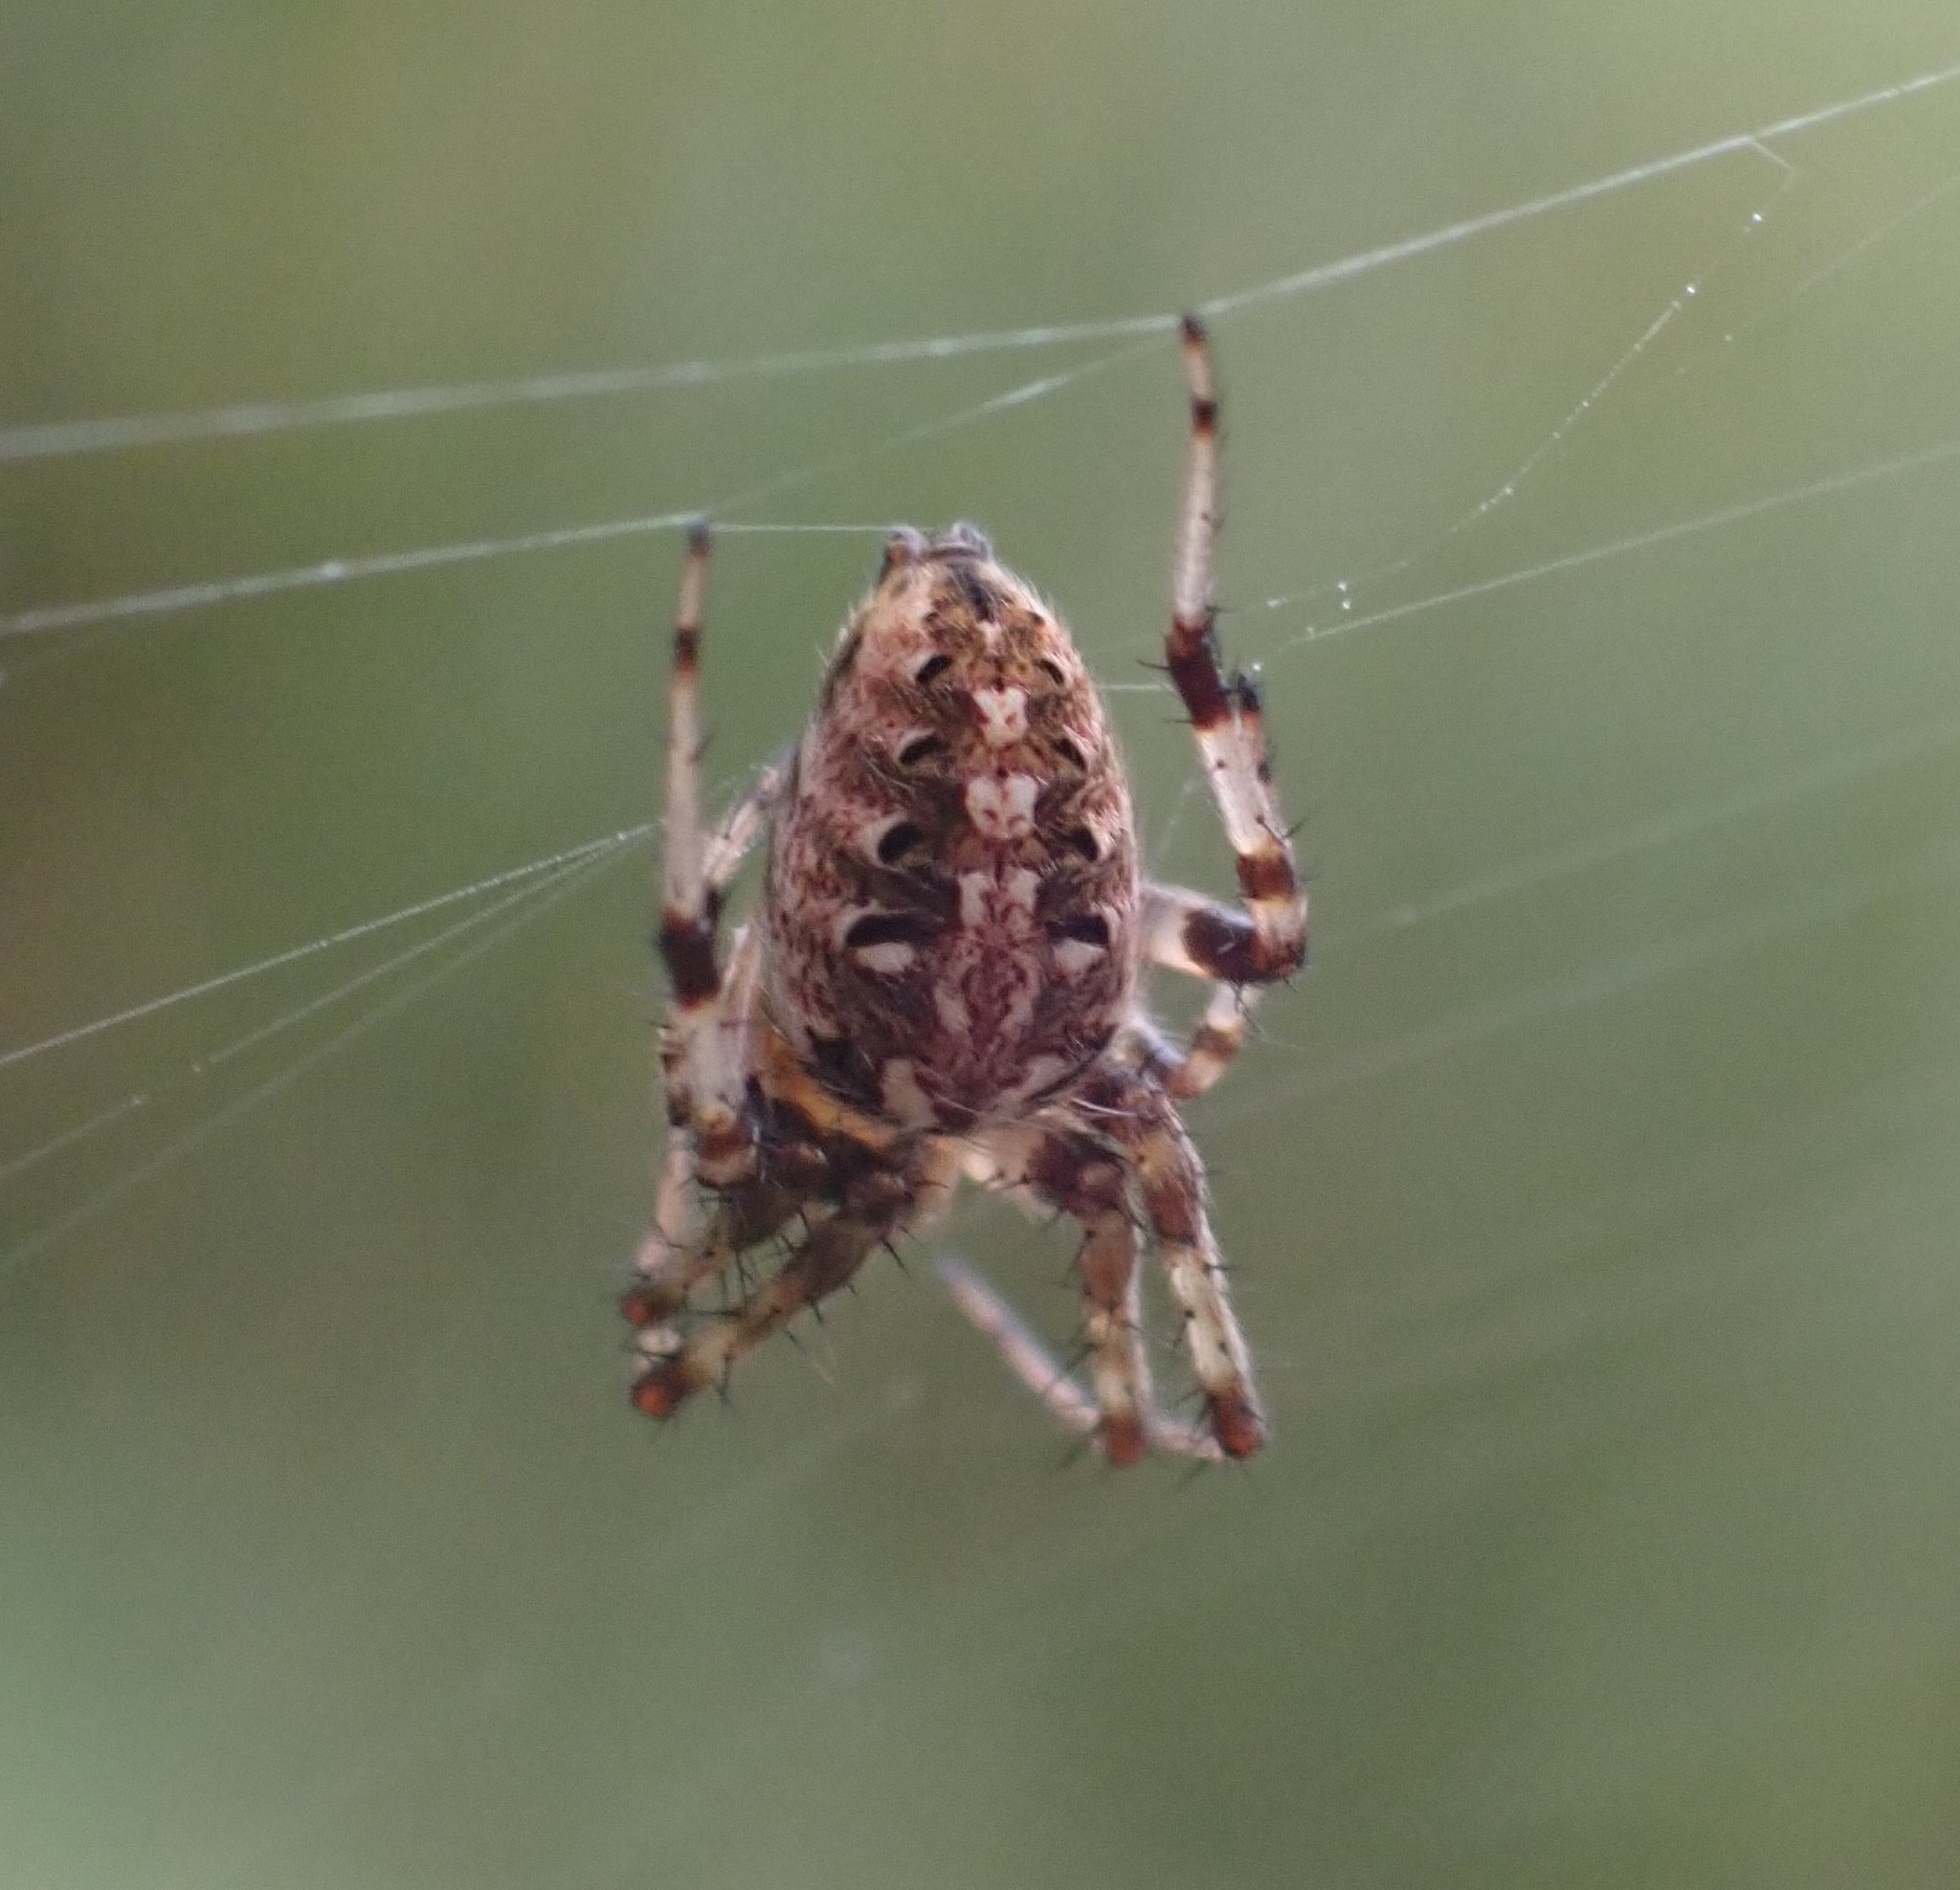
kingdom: Animalia
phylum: Arthropoda
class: Arachnida
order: Araneae
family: Araneidae
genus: Neoscona
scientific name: Neoscona arabesca
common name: Orb weavers
